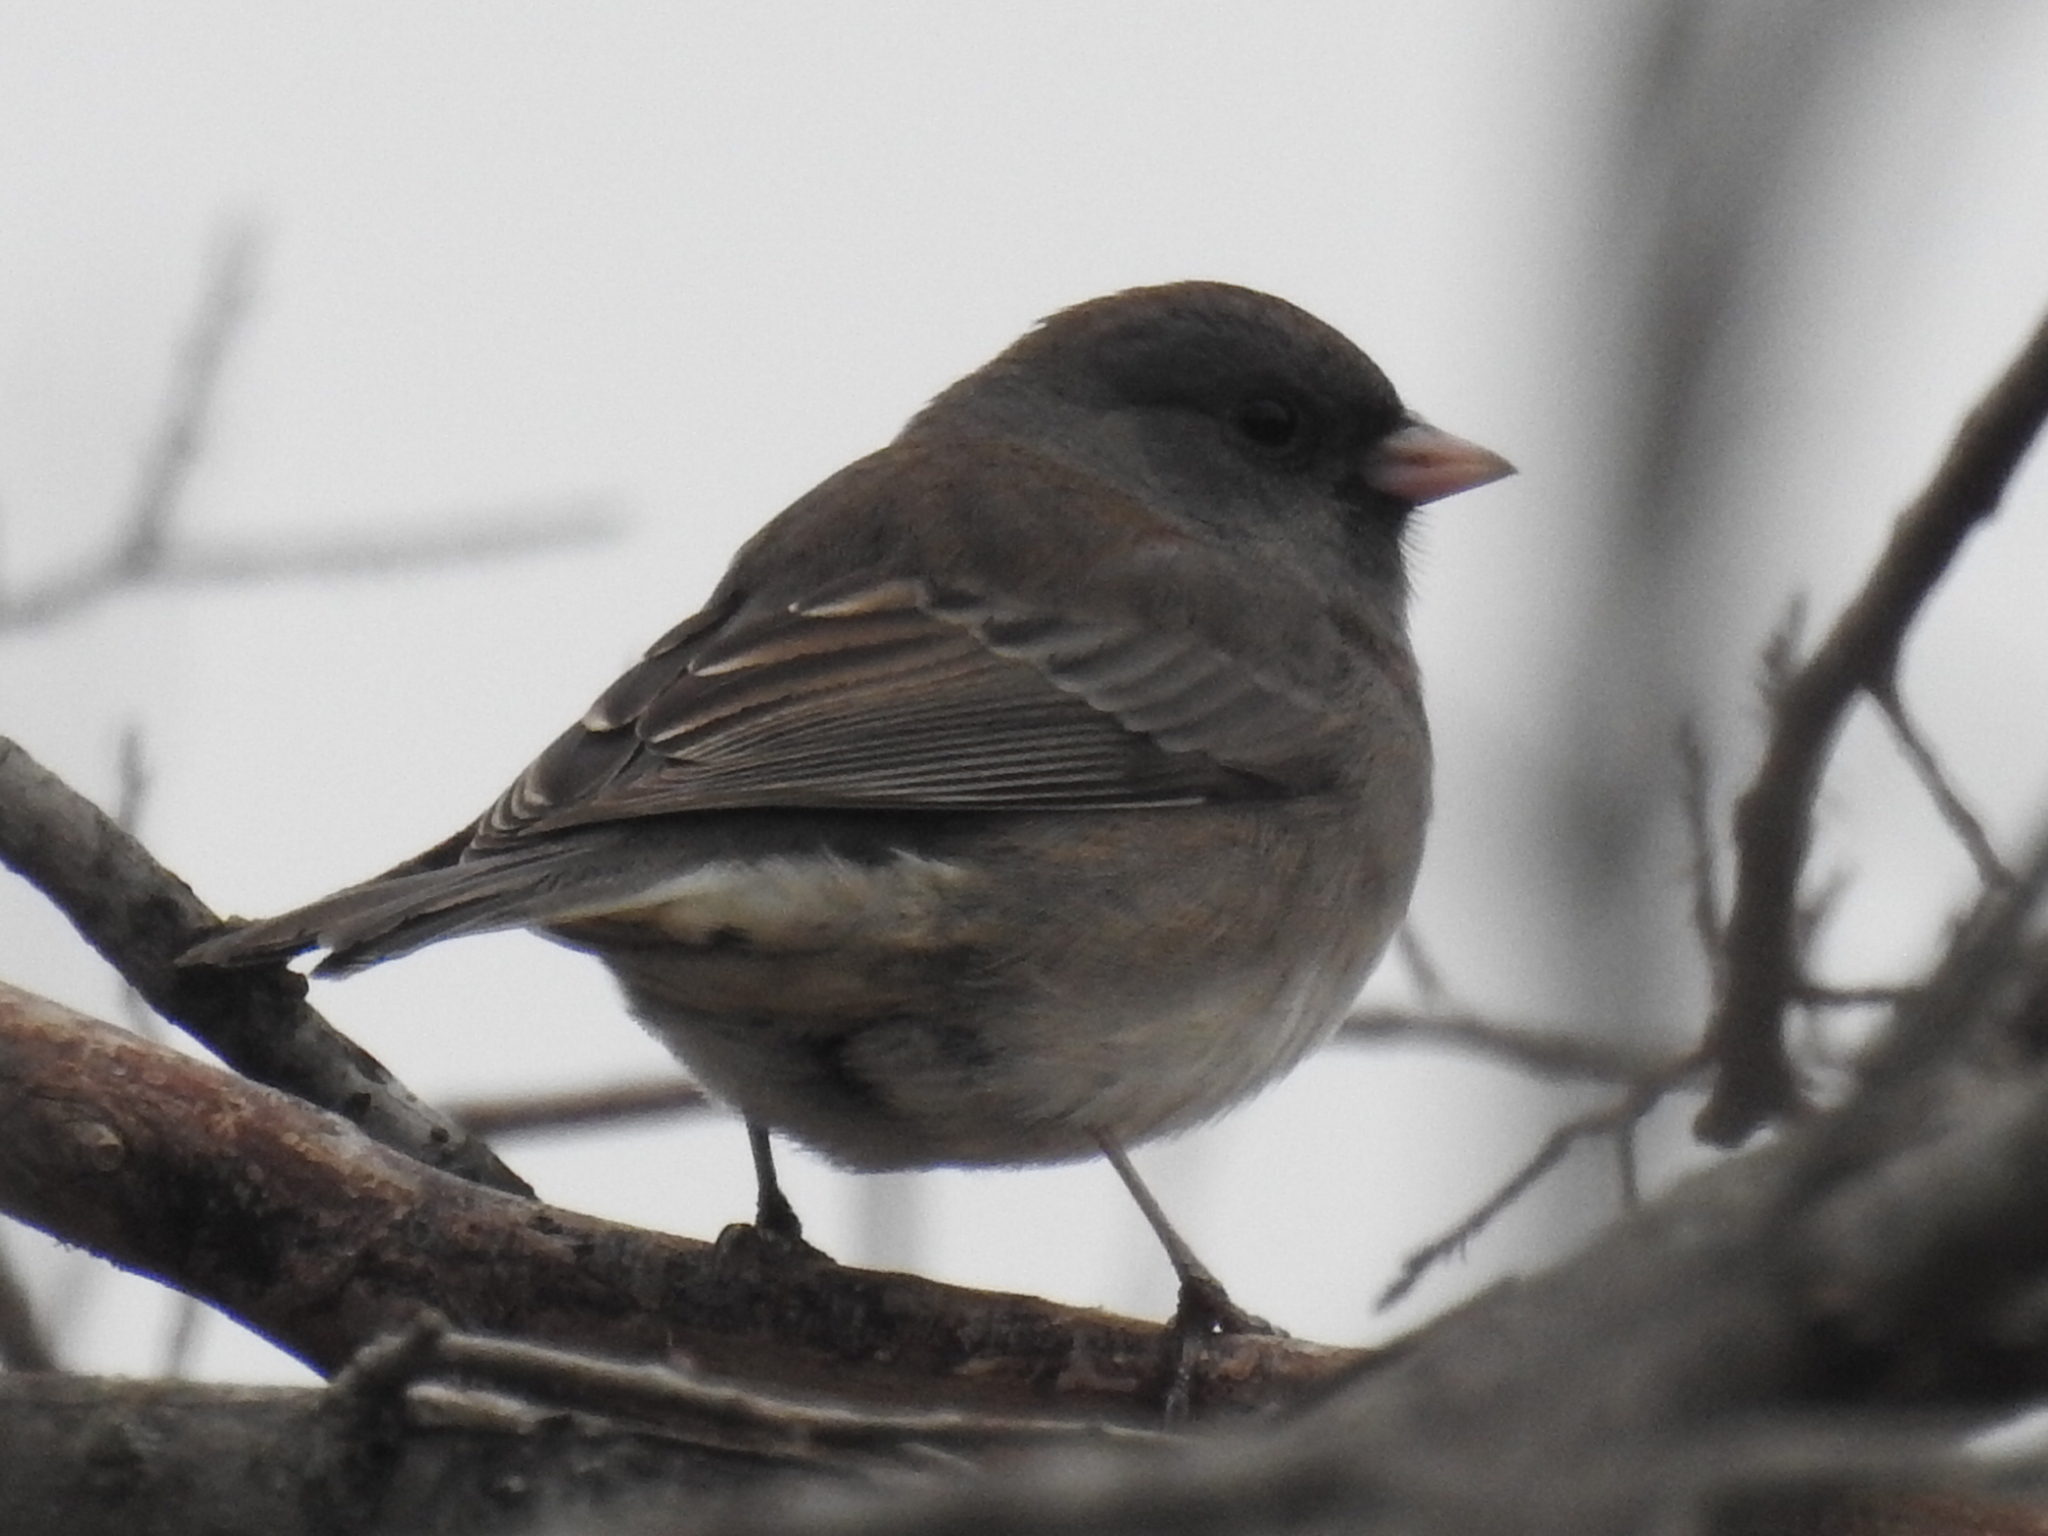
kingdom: Animalia
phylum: Chordata
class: Aves
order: Passeriformes
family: Passerellidae
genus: Junco
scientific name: Junco hyemalis
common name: Dark-eyed junco
